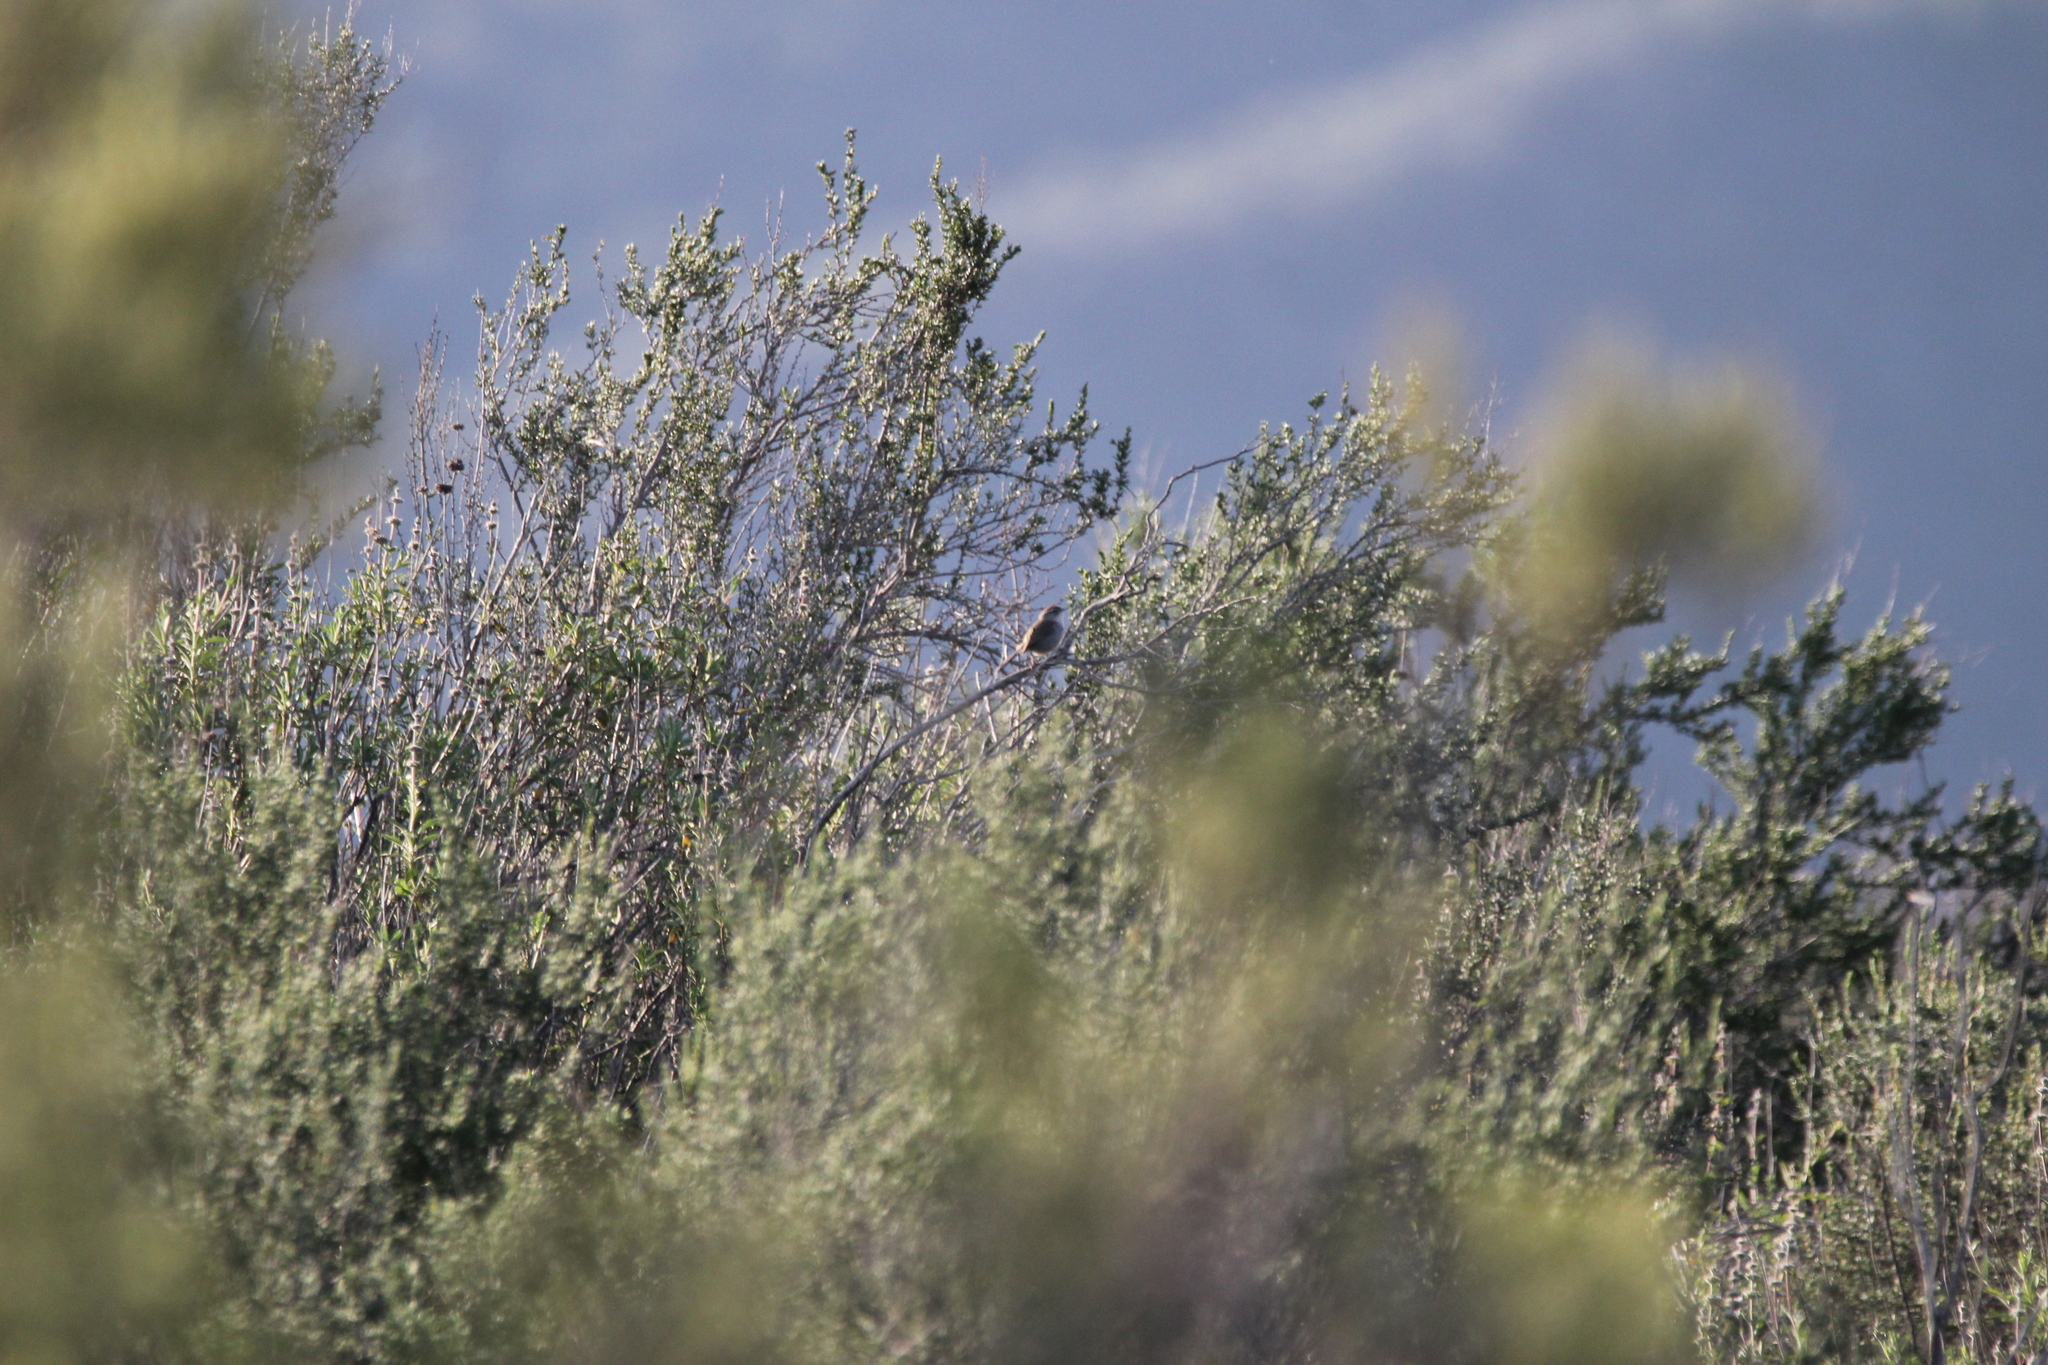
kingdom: Animalia
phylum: Chordata
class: Aves
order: Passeriformes
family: Troglodytidae
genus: Thryomanes
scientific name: Thryomanes bewickii
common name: Bewick's wren
